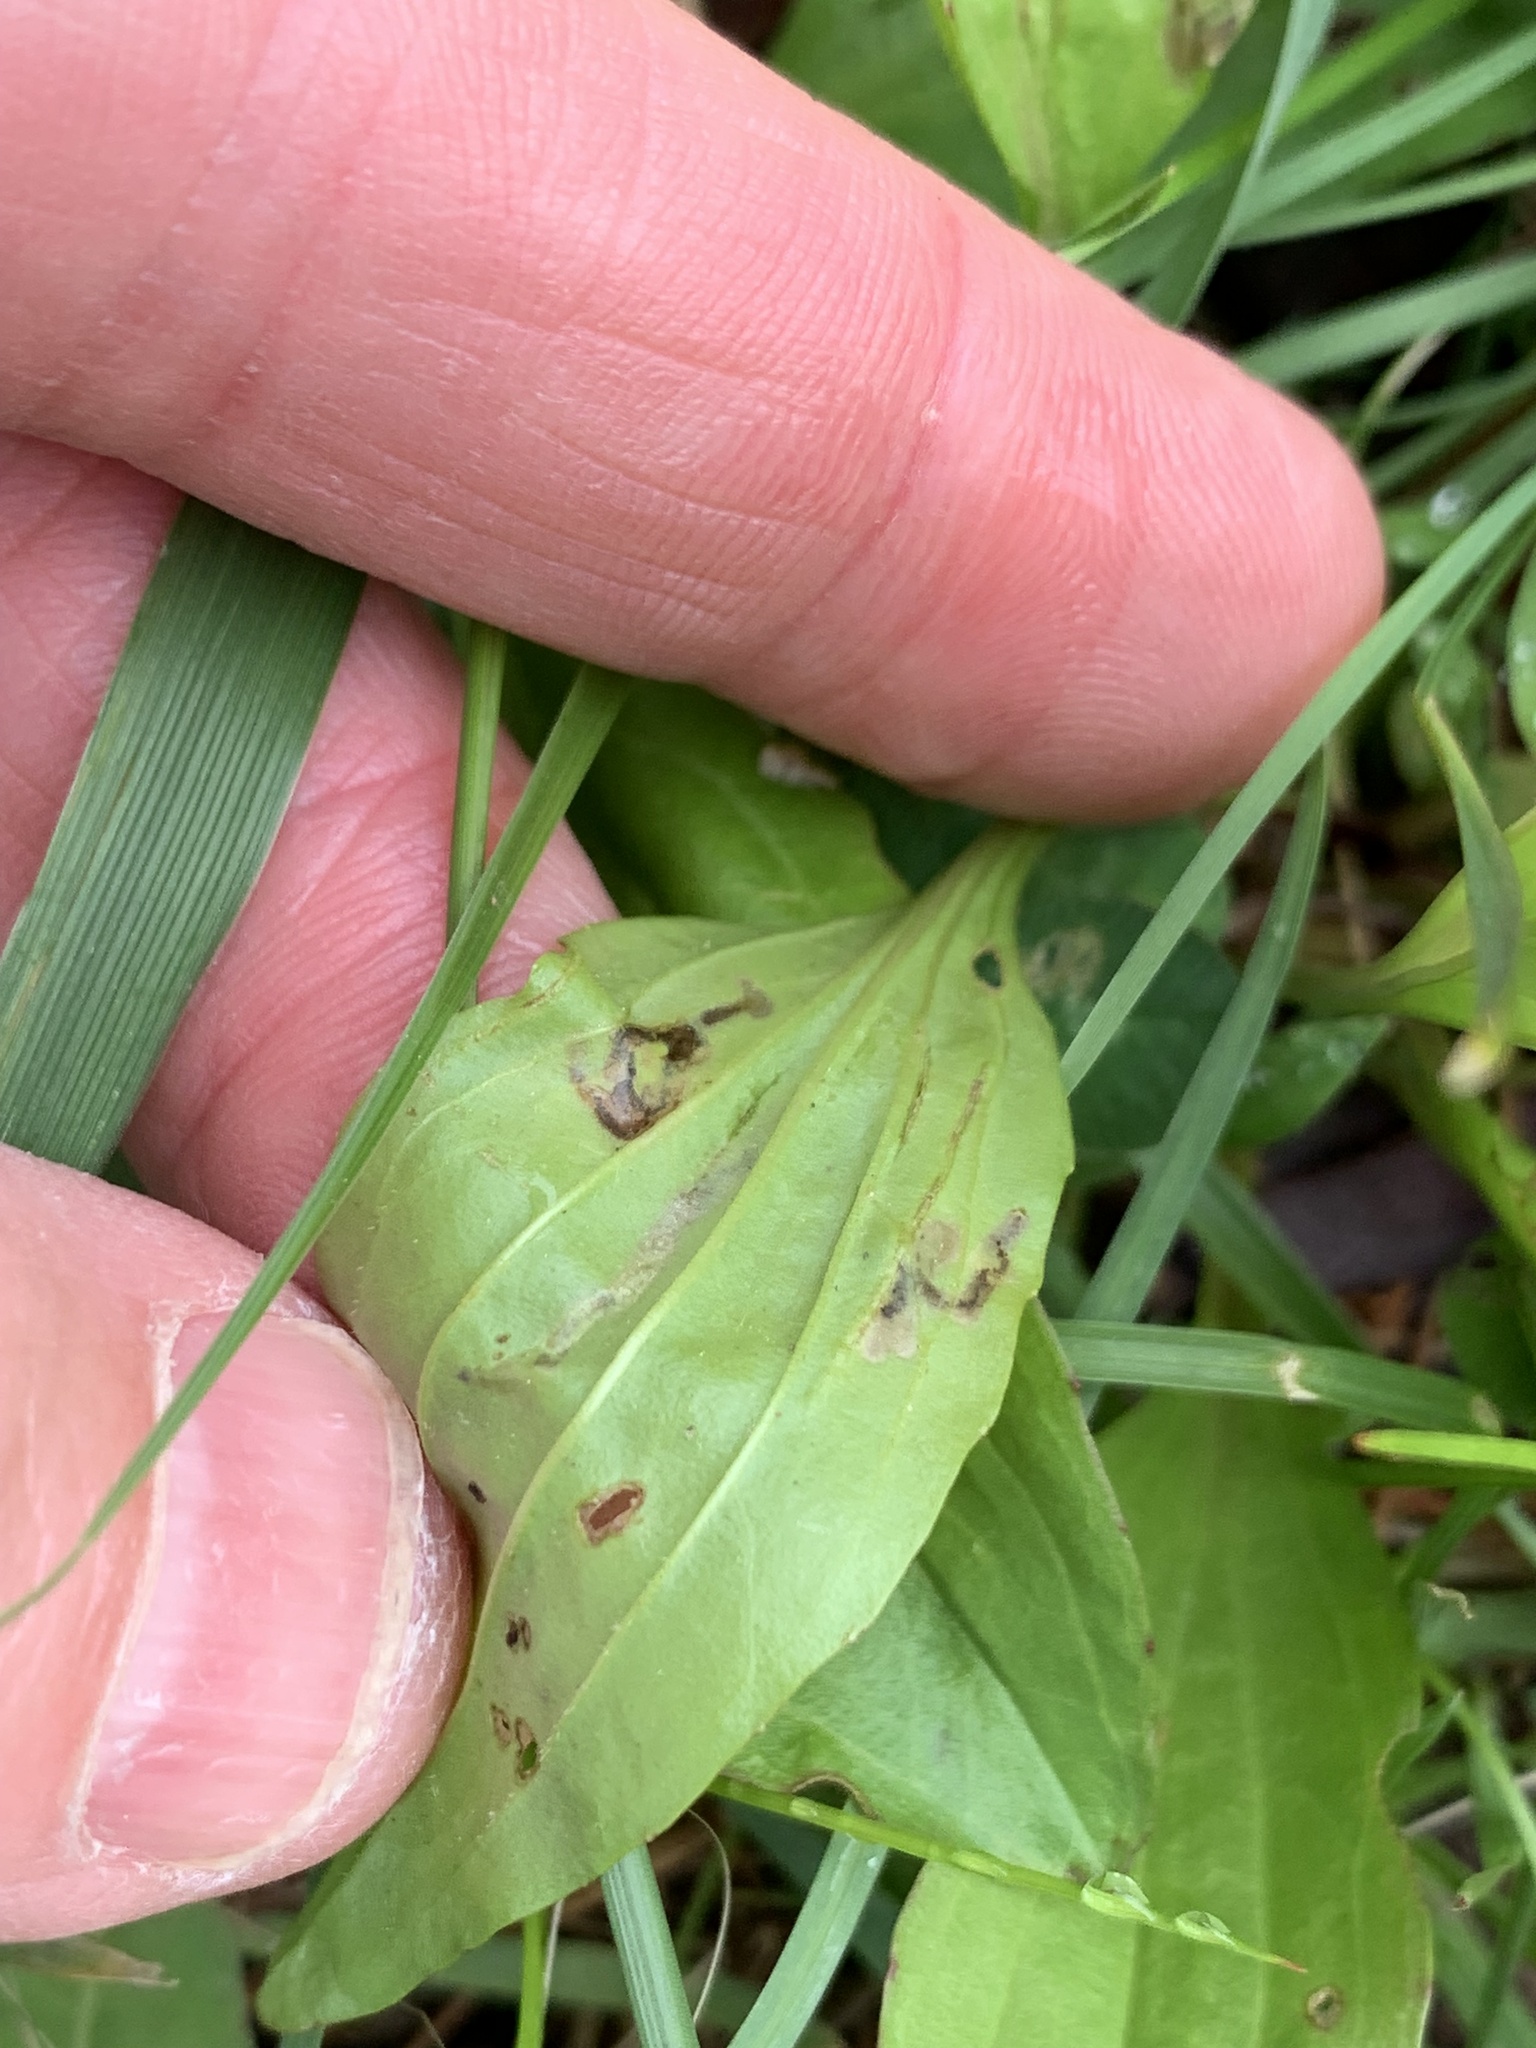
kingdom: Animalia
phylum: Arthropoda
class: Insecta
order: Coleoptera
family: Chrysomelidae
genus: Dibolia
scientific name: Dibolia borealis
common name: Northern plantain flea beetle
